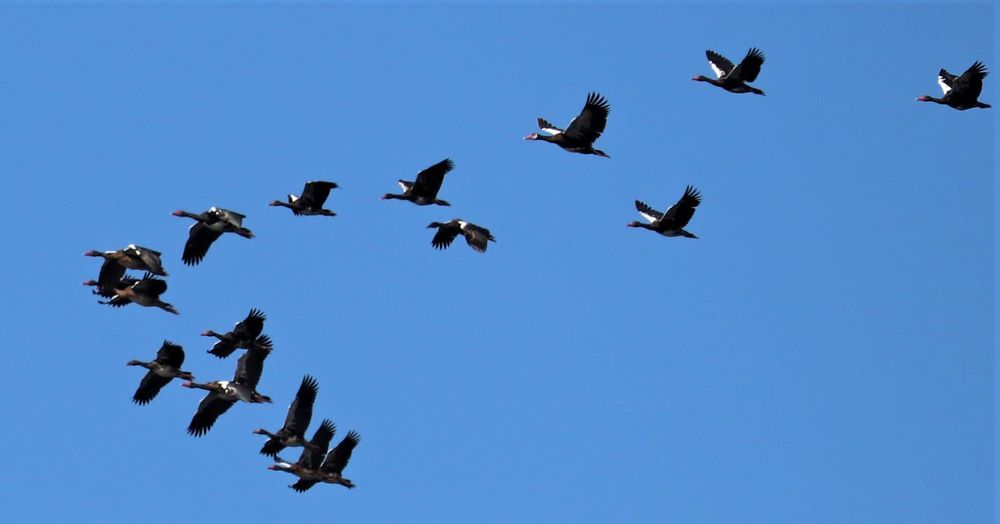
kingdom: Animalia
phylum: Chordata
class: Aves
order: Anseriformes
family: Anatidae
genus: Plectropterus
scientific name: Plectropterus gambensis
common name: Spur-winged goose
